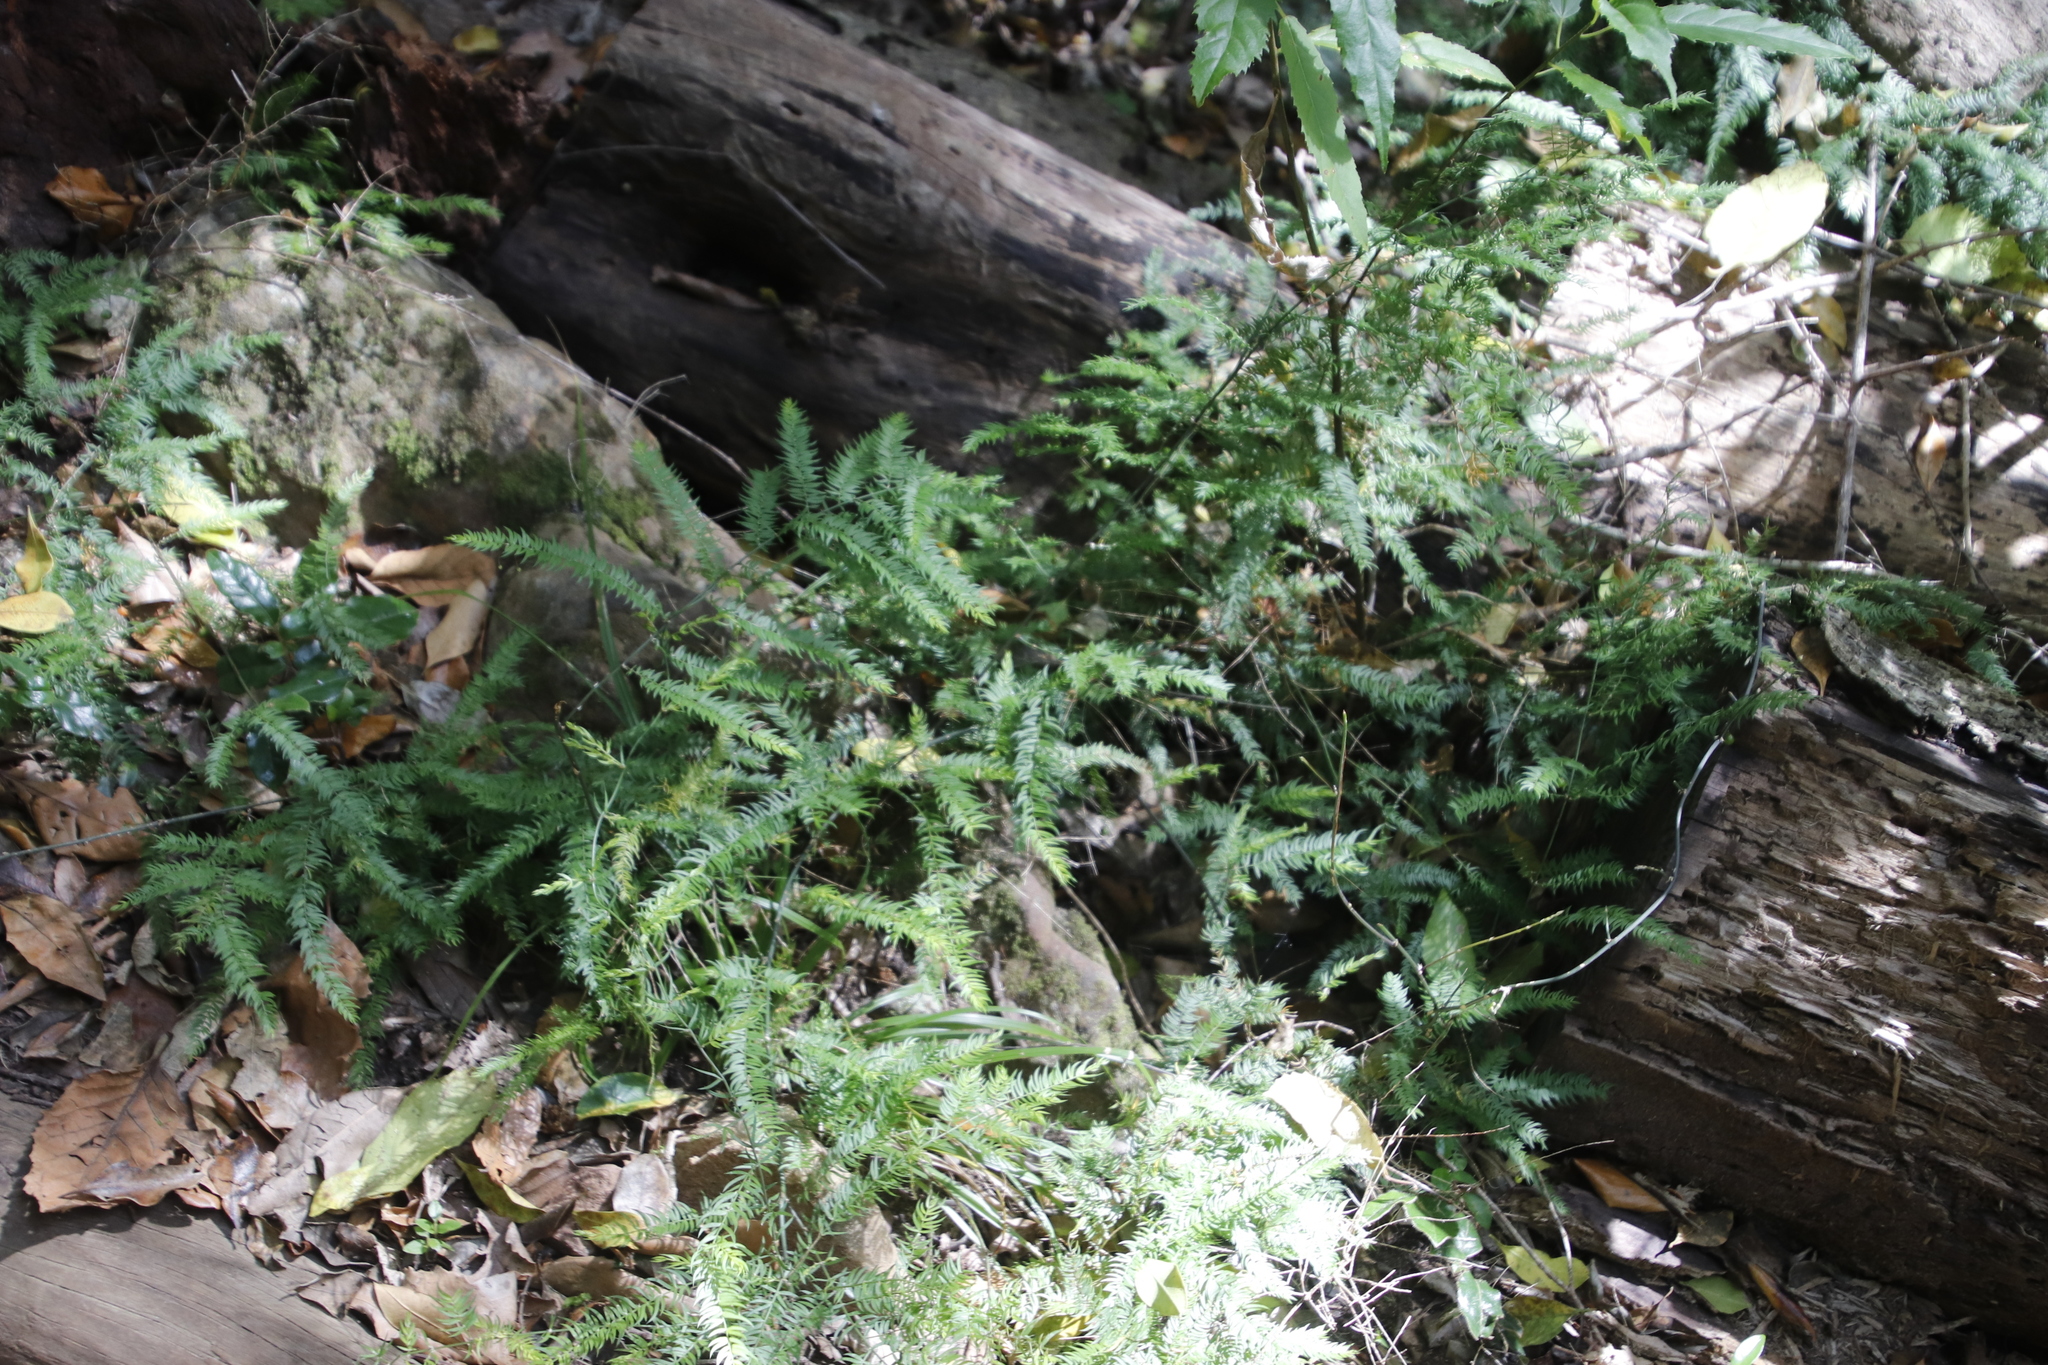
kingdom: Plantae
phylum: Tracheophyta
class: Liliopsida
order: Asparagales
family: Asparagaceae
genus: Asparagus
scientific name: Asparagus scandens
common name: Asparagus-fern
